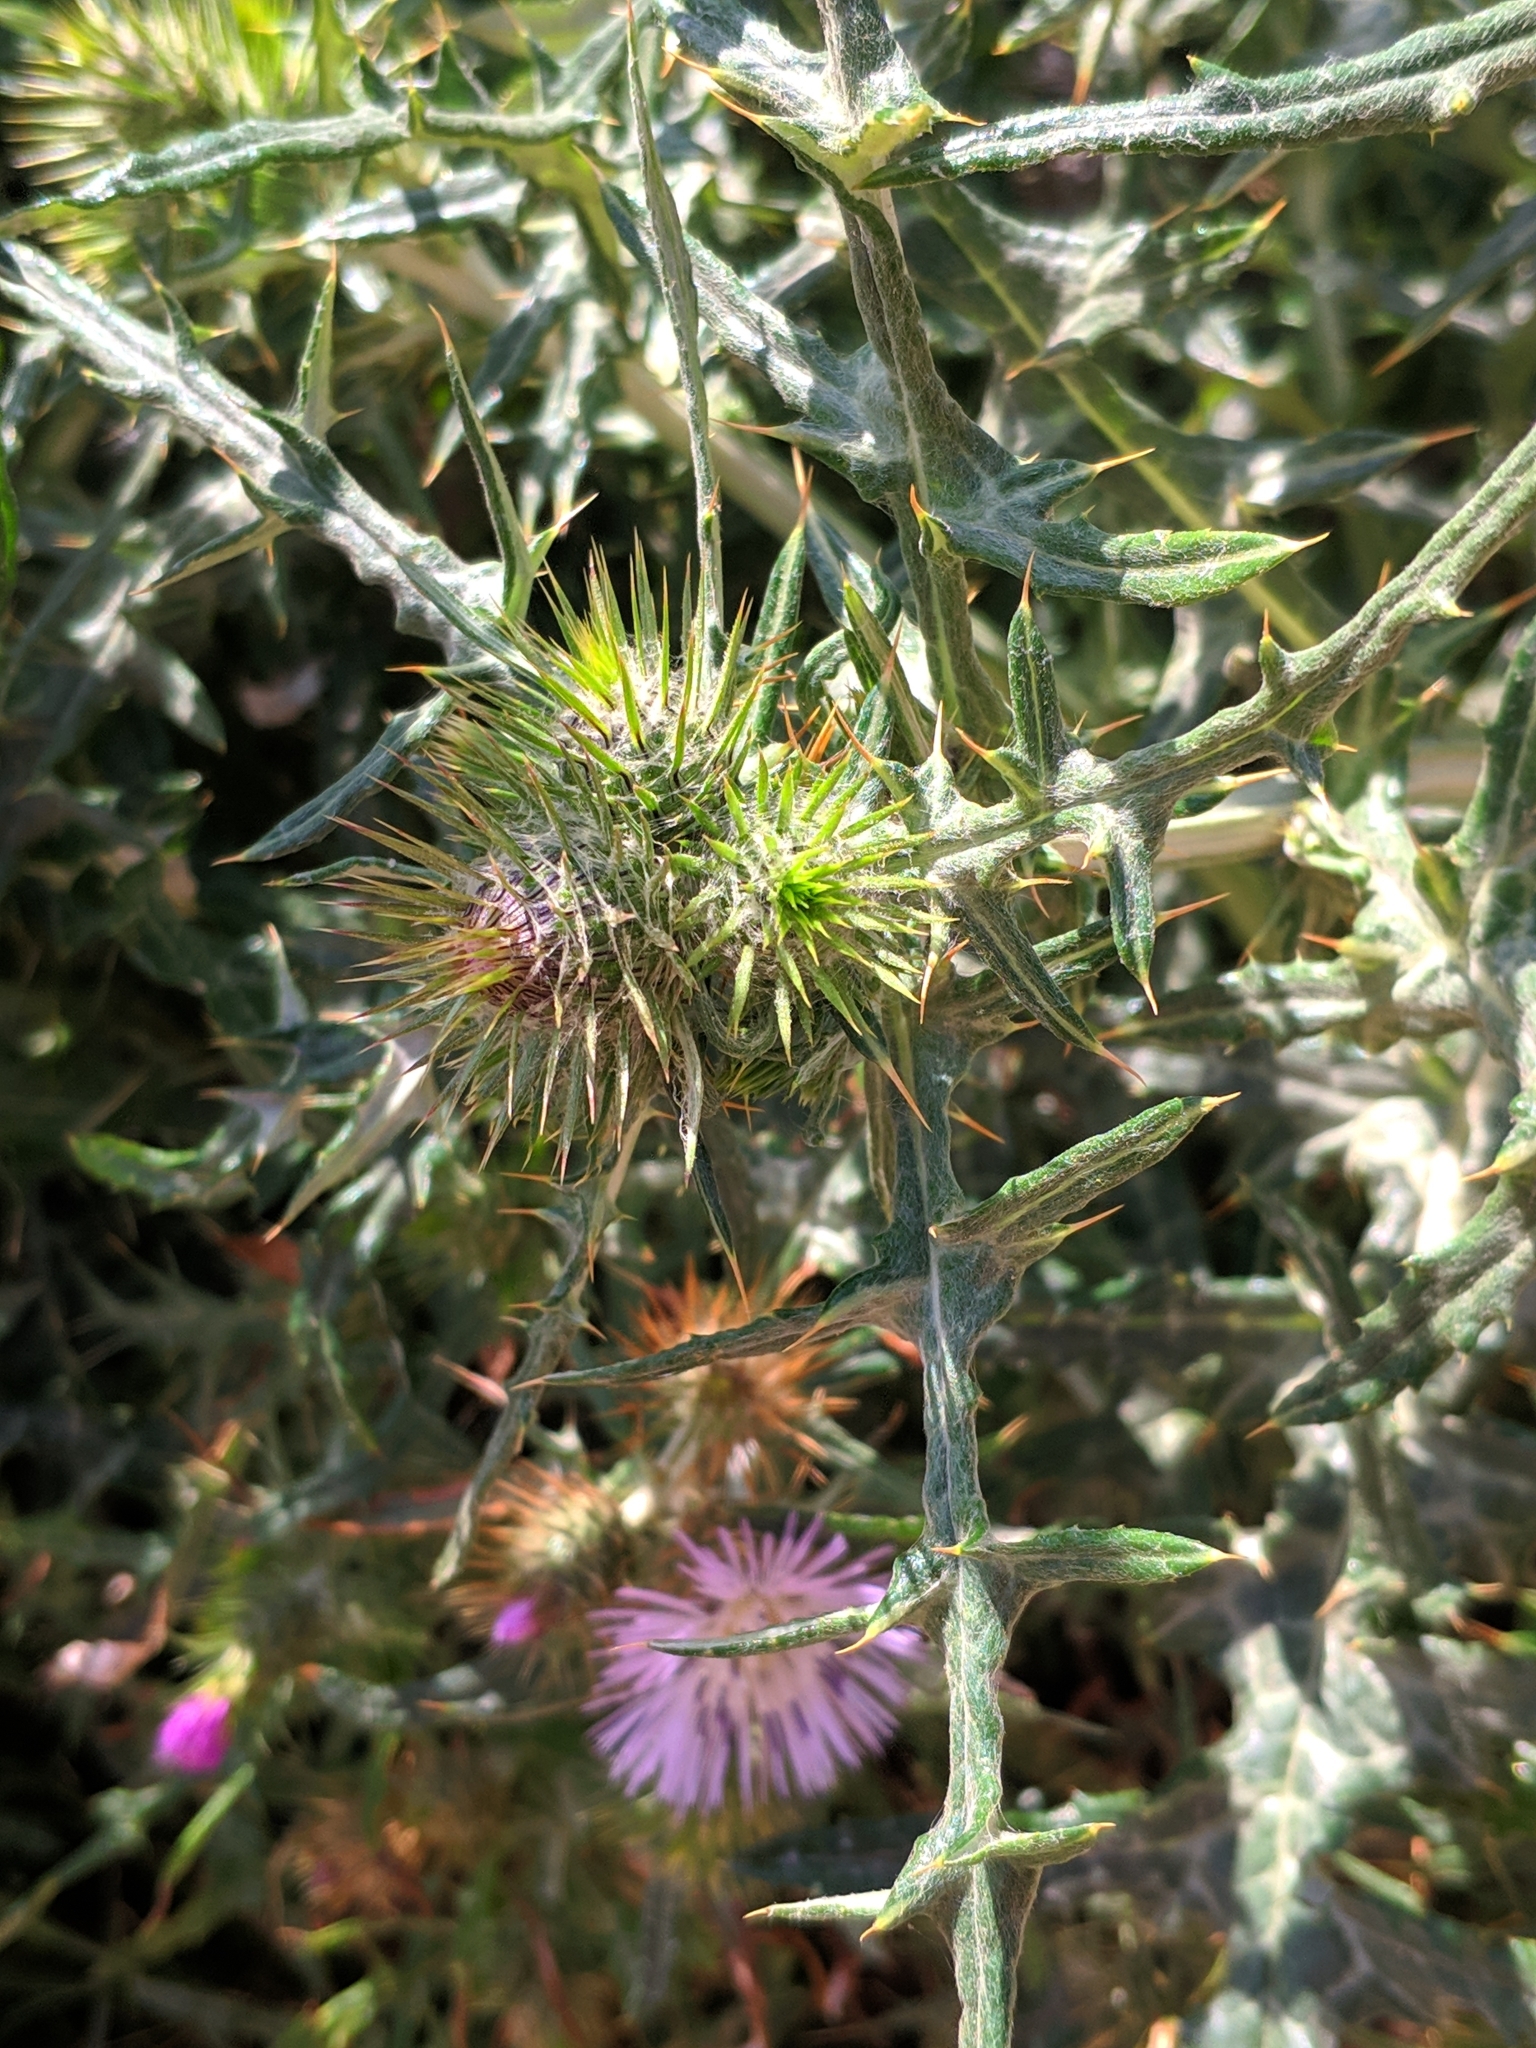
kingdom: Plantae
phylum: Tracheophyta
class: Magnoliopsida
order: Asterales
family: Asteraceae
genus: Galactites
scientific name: Galactites tomentosa
